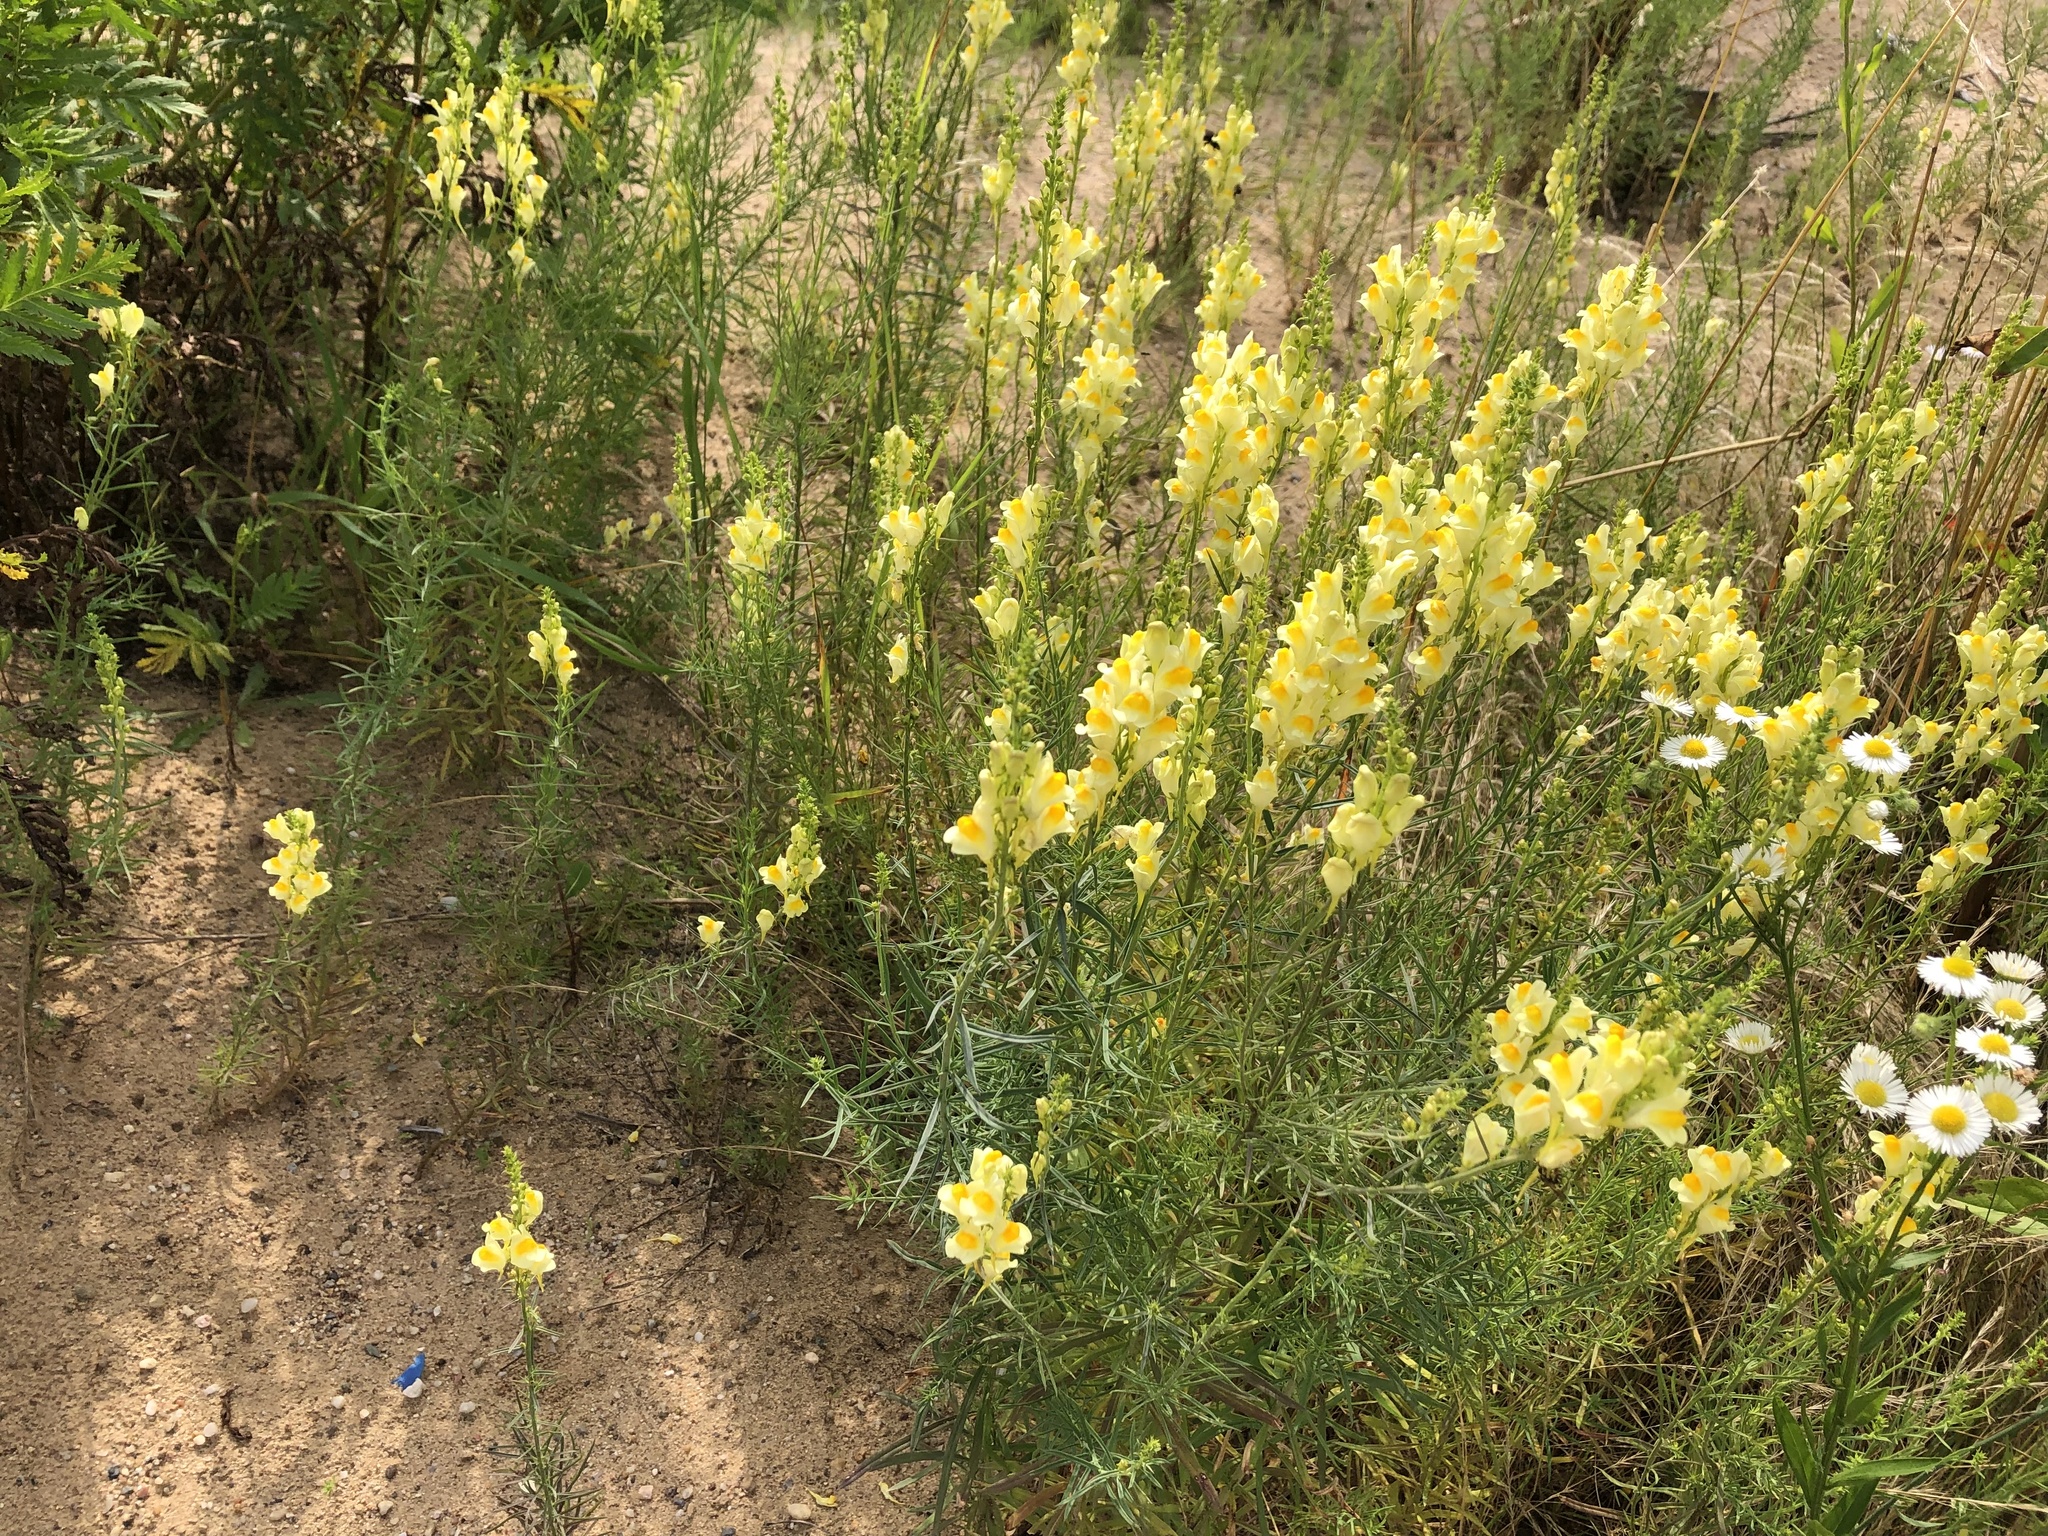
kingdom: Plantae
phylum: Tracheophyta
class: Magnoliopsida
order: Lamiales
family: Plantaginaceae
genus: Linaria
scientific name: Linaria vulgaris
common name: Butter and eggs
